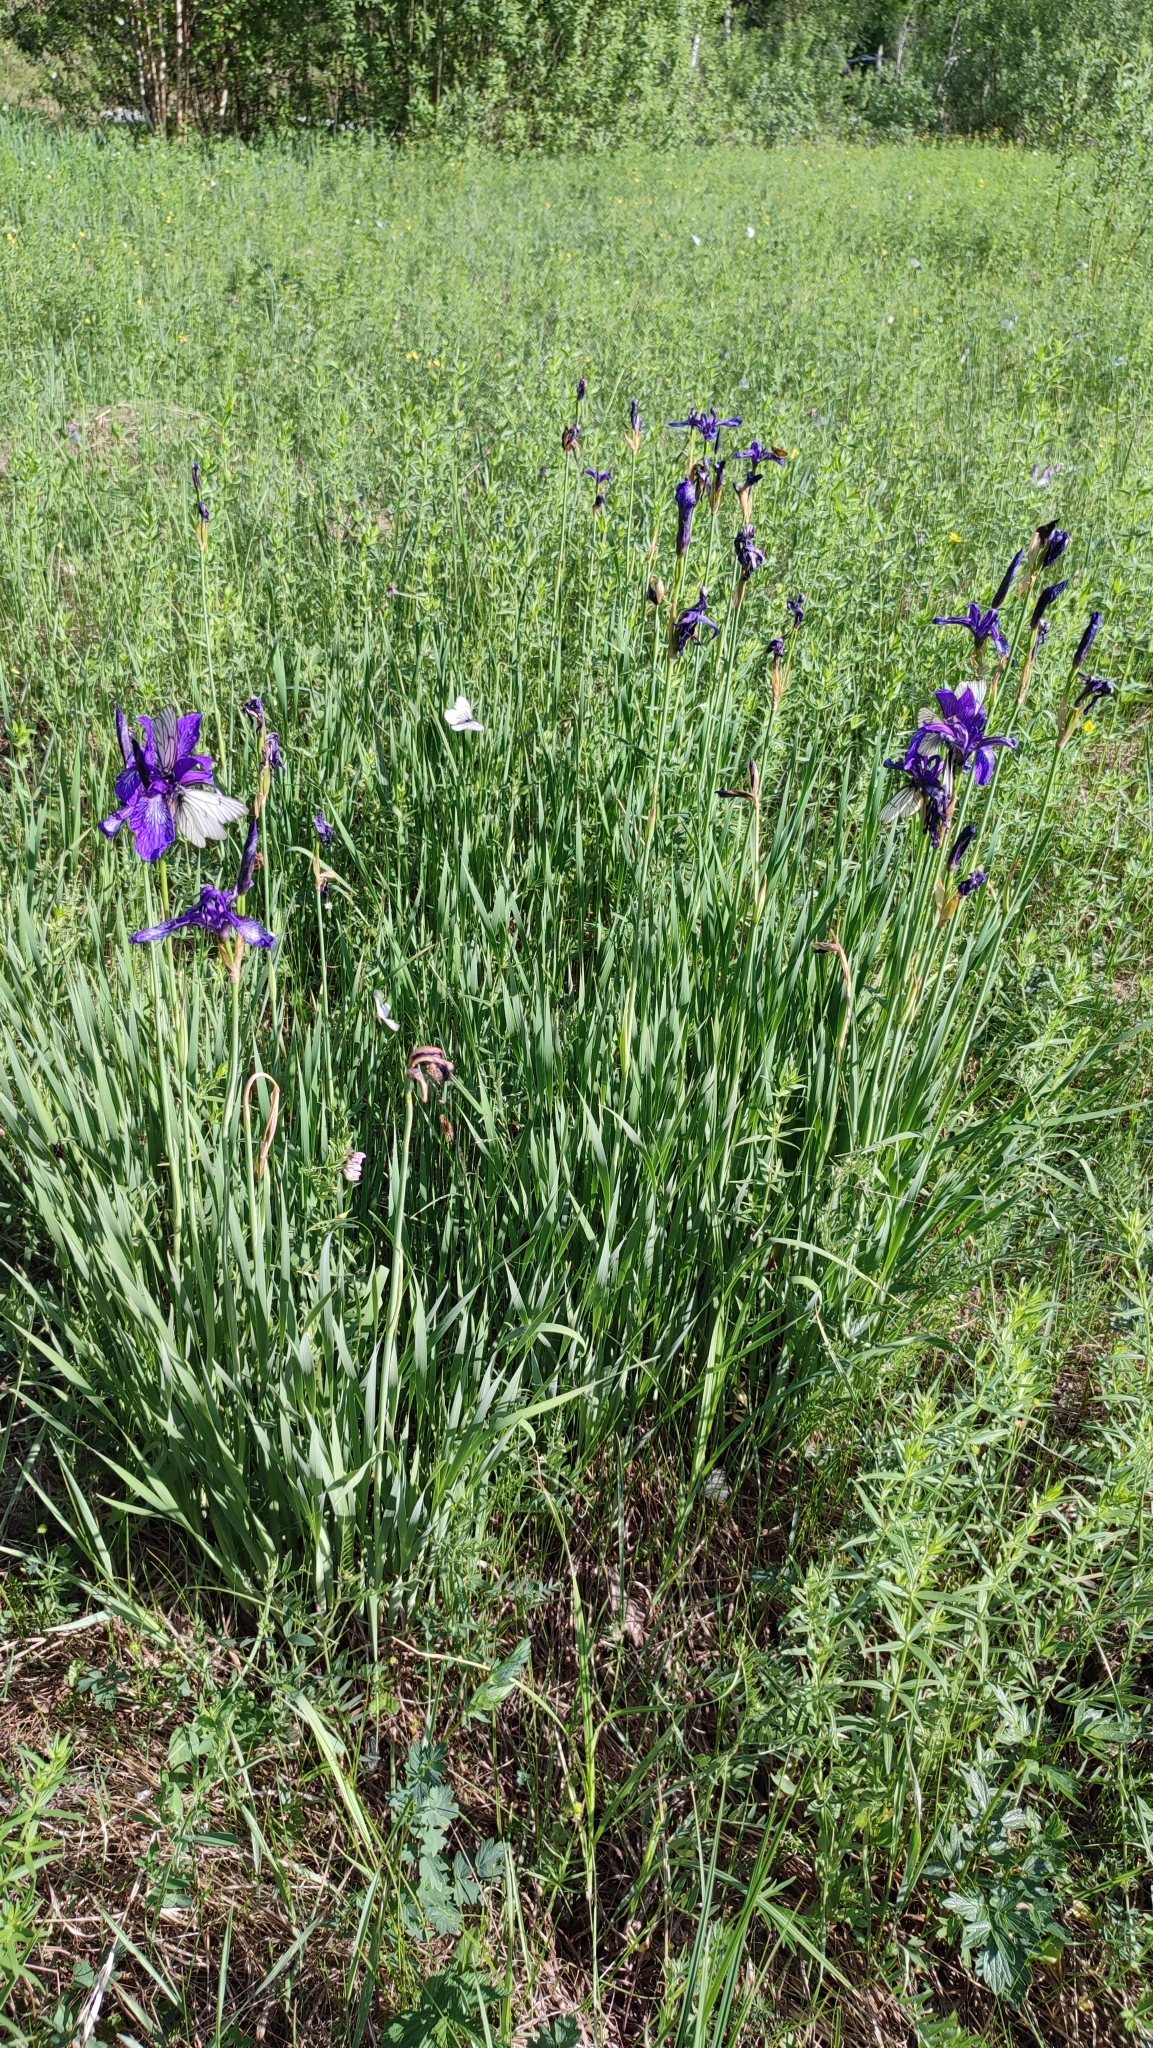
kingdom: Plantae
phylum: Tracheophyta
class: Liliopsida
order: Asparagales
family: Iridaceae
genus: Iris
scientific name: Iris sibirica
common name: Siberian iris
